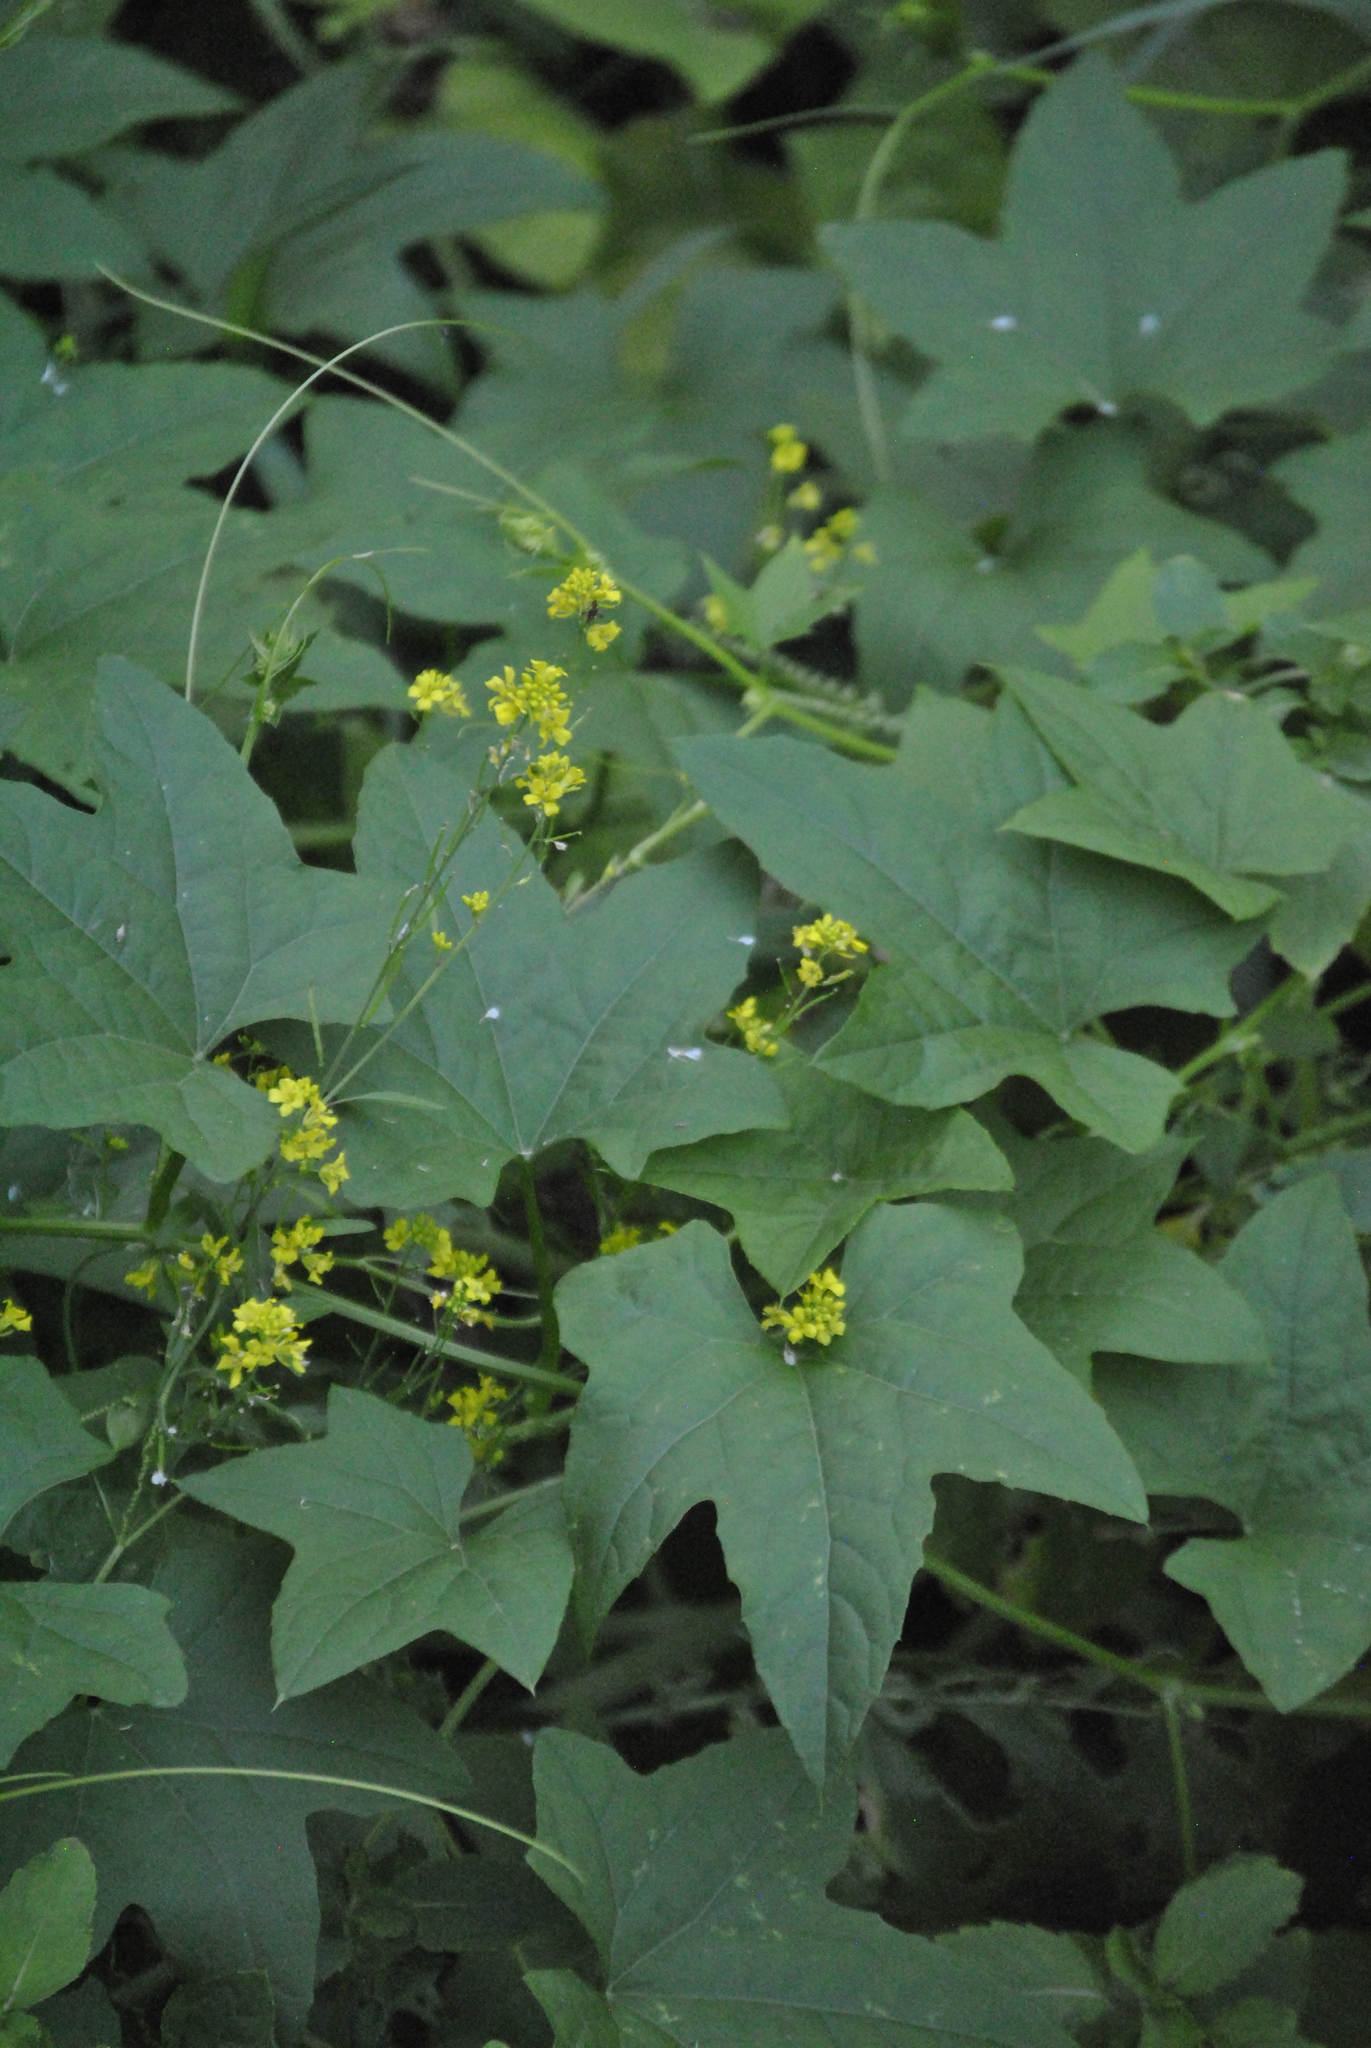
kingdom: Plantae
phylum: Tracheophyta
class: Magnoliopsida
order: Cucurbitales
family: Cucurbitaceae
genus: Echinocystis
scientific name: Echinocystis lobata
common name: Wild cucumber
